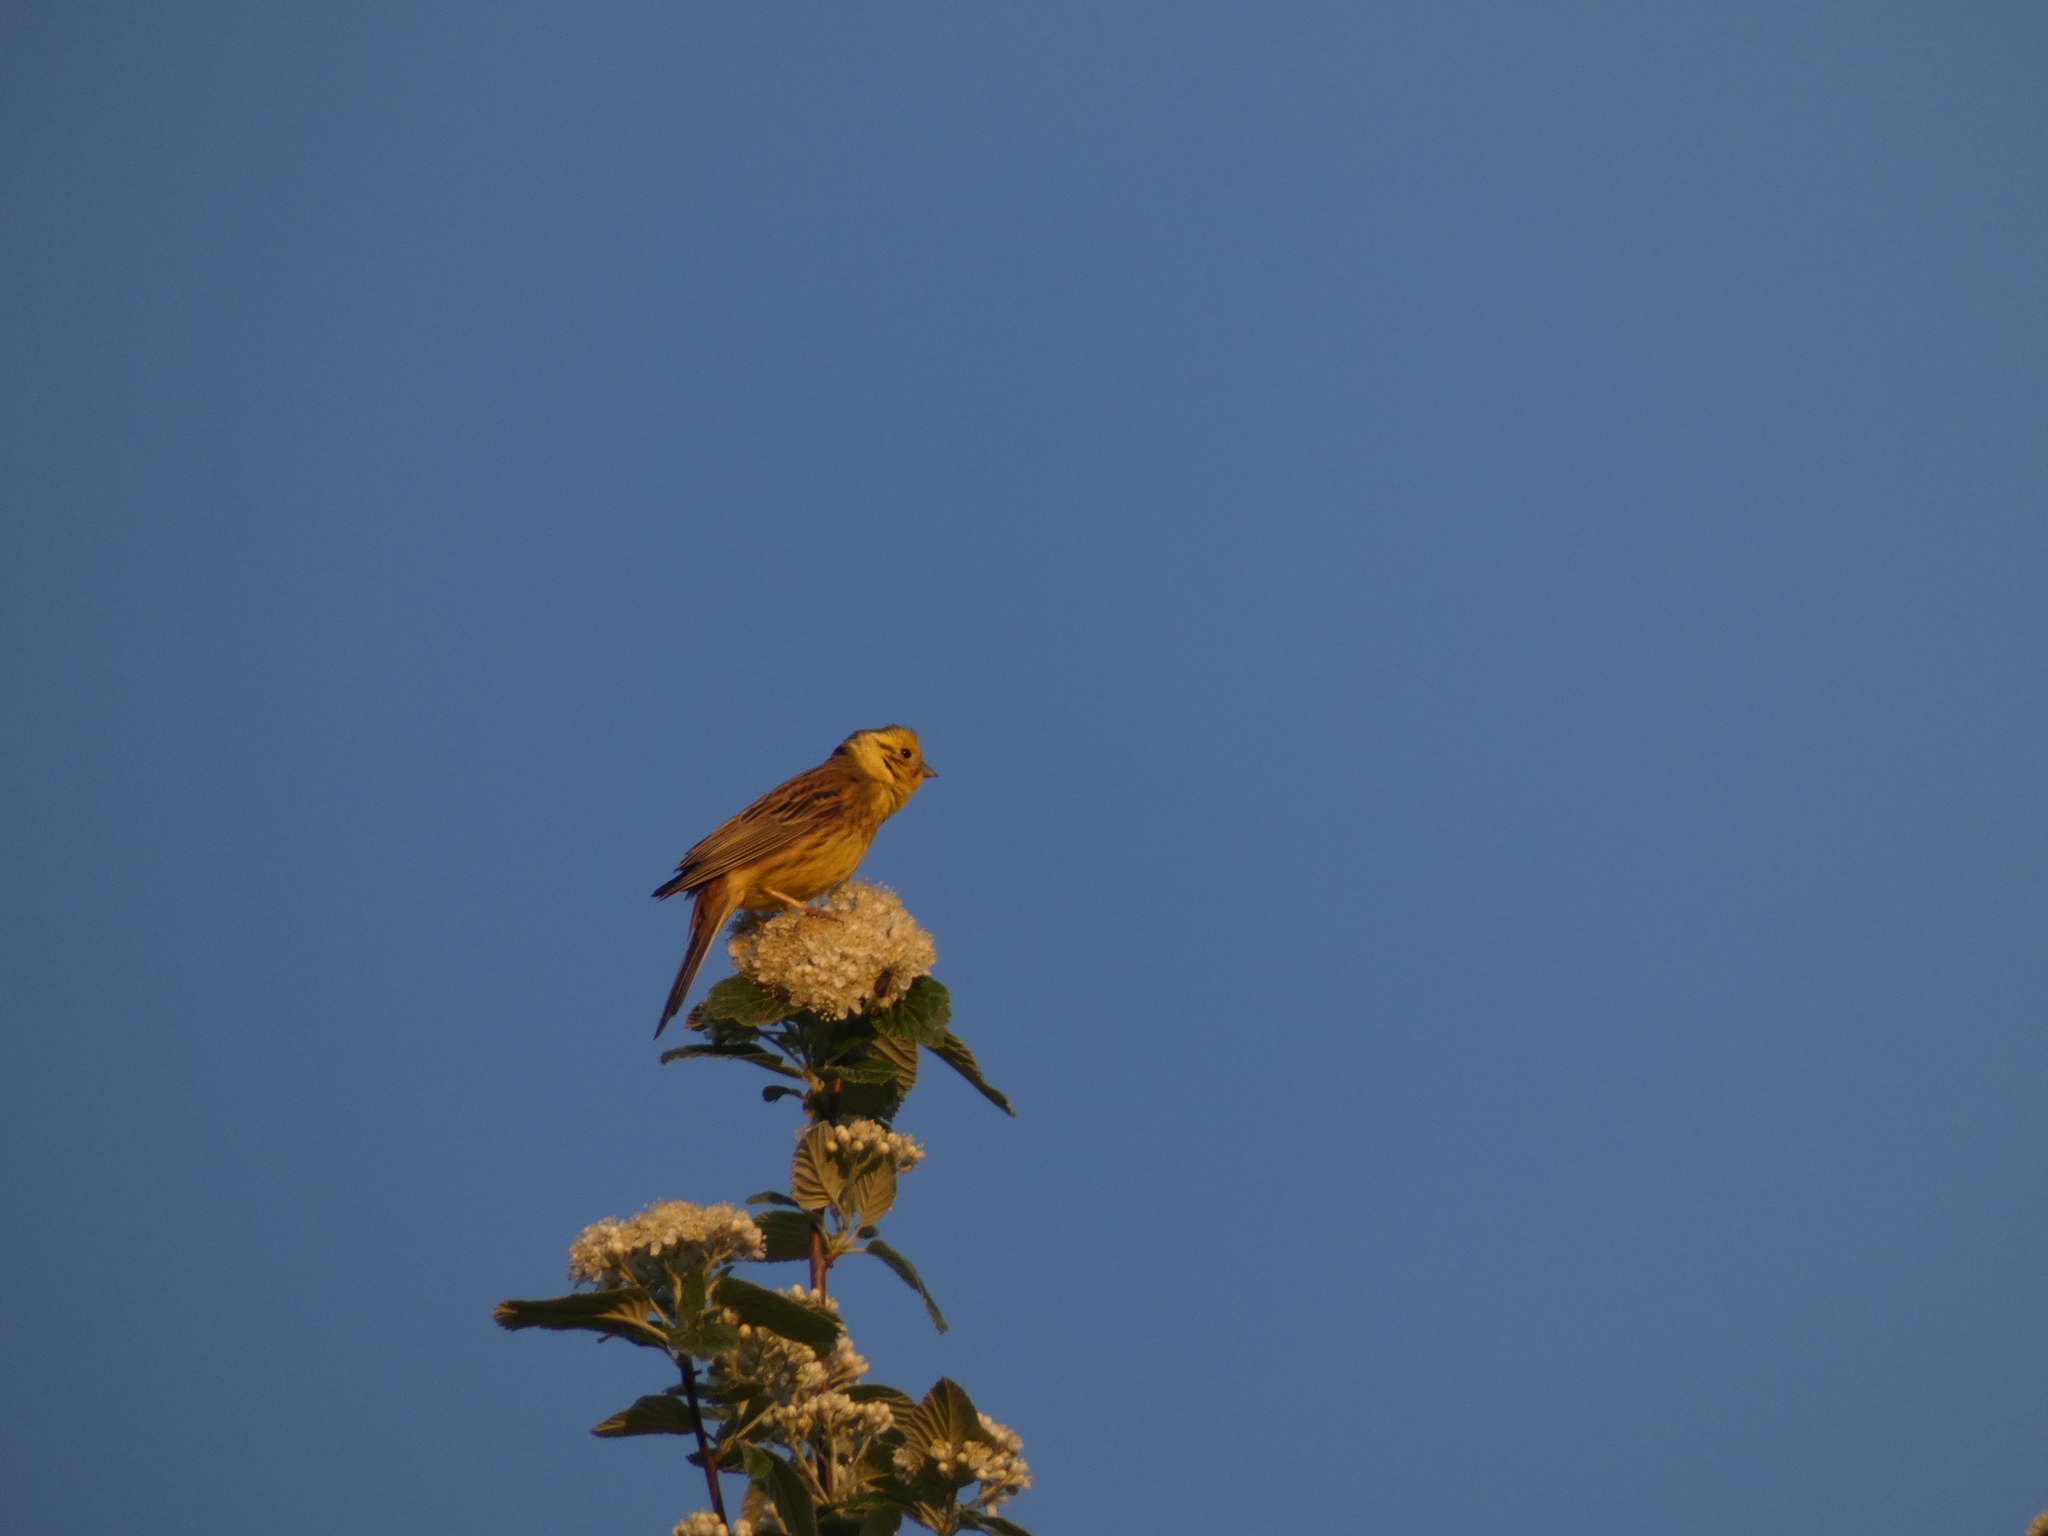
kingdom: Animalia
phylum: Chordata
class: Aves
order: Passeriformes
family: Emberizidae
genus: Emberiza
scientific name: Emberiza citrinella
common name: Yellowhammer
